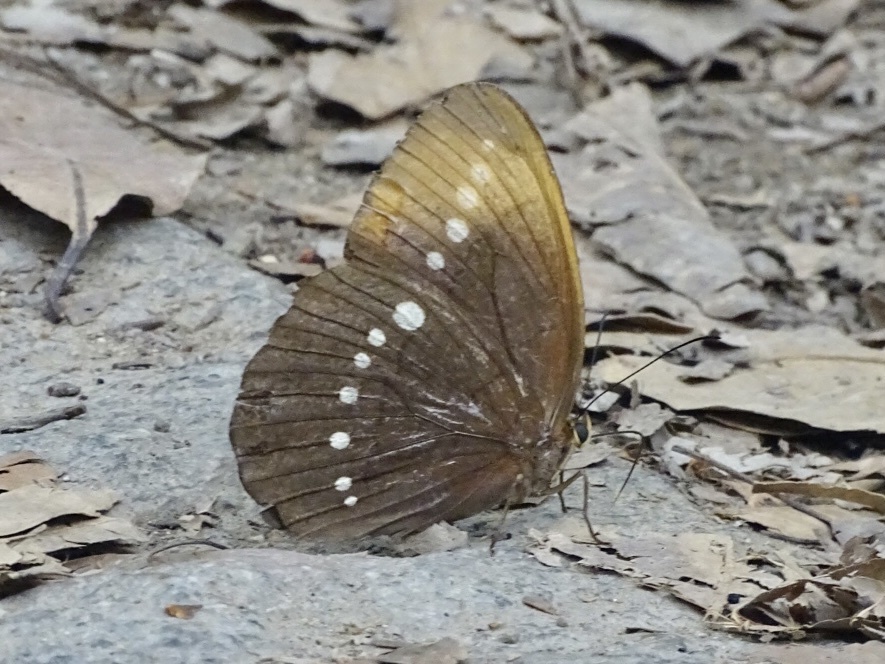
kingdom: Animalia
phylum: Arthropoda
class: Insecta
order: Lepidoptera
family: Nymphalidae
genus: Faunis
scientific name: Faunis eumeus
